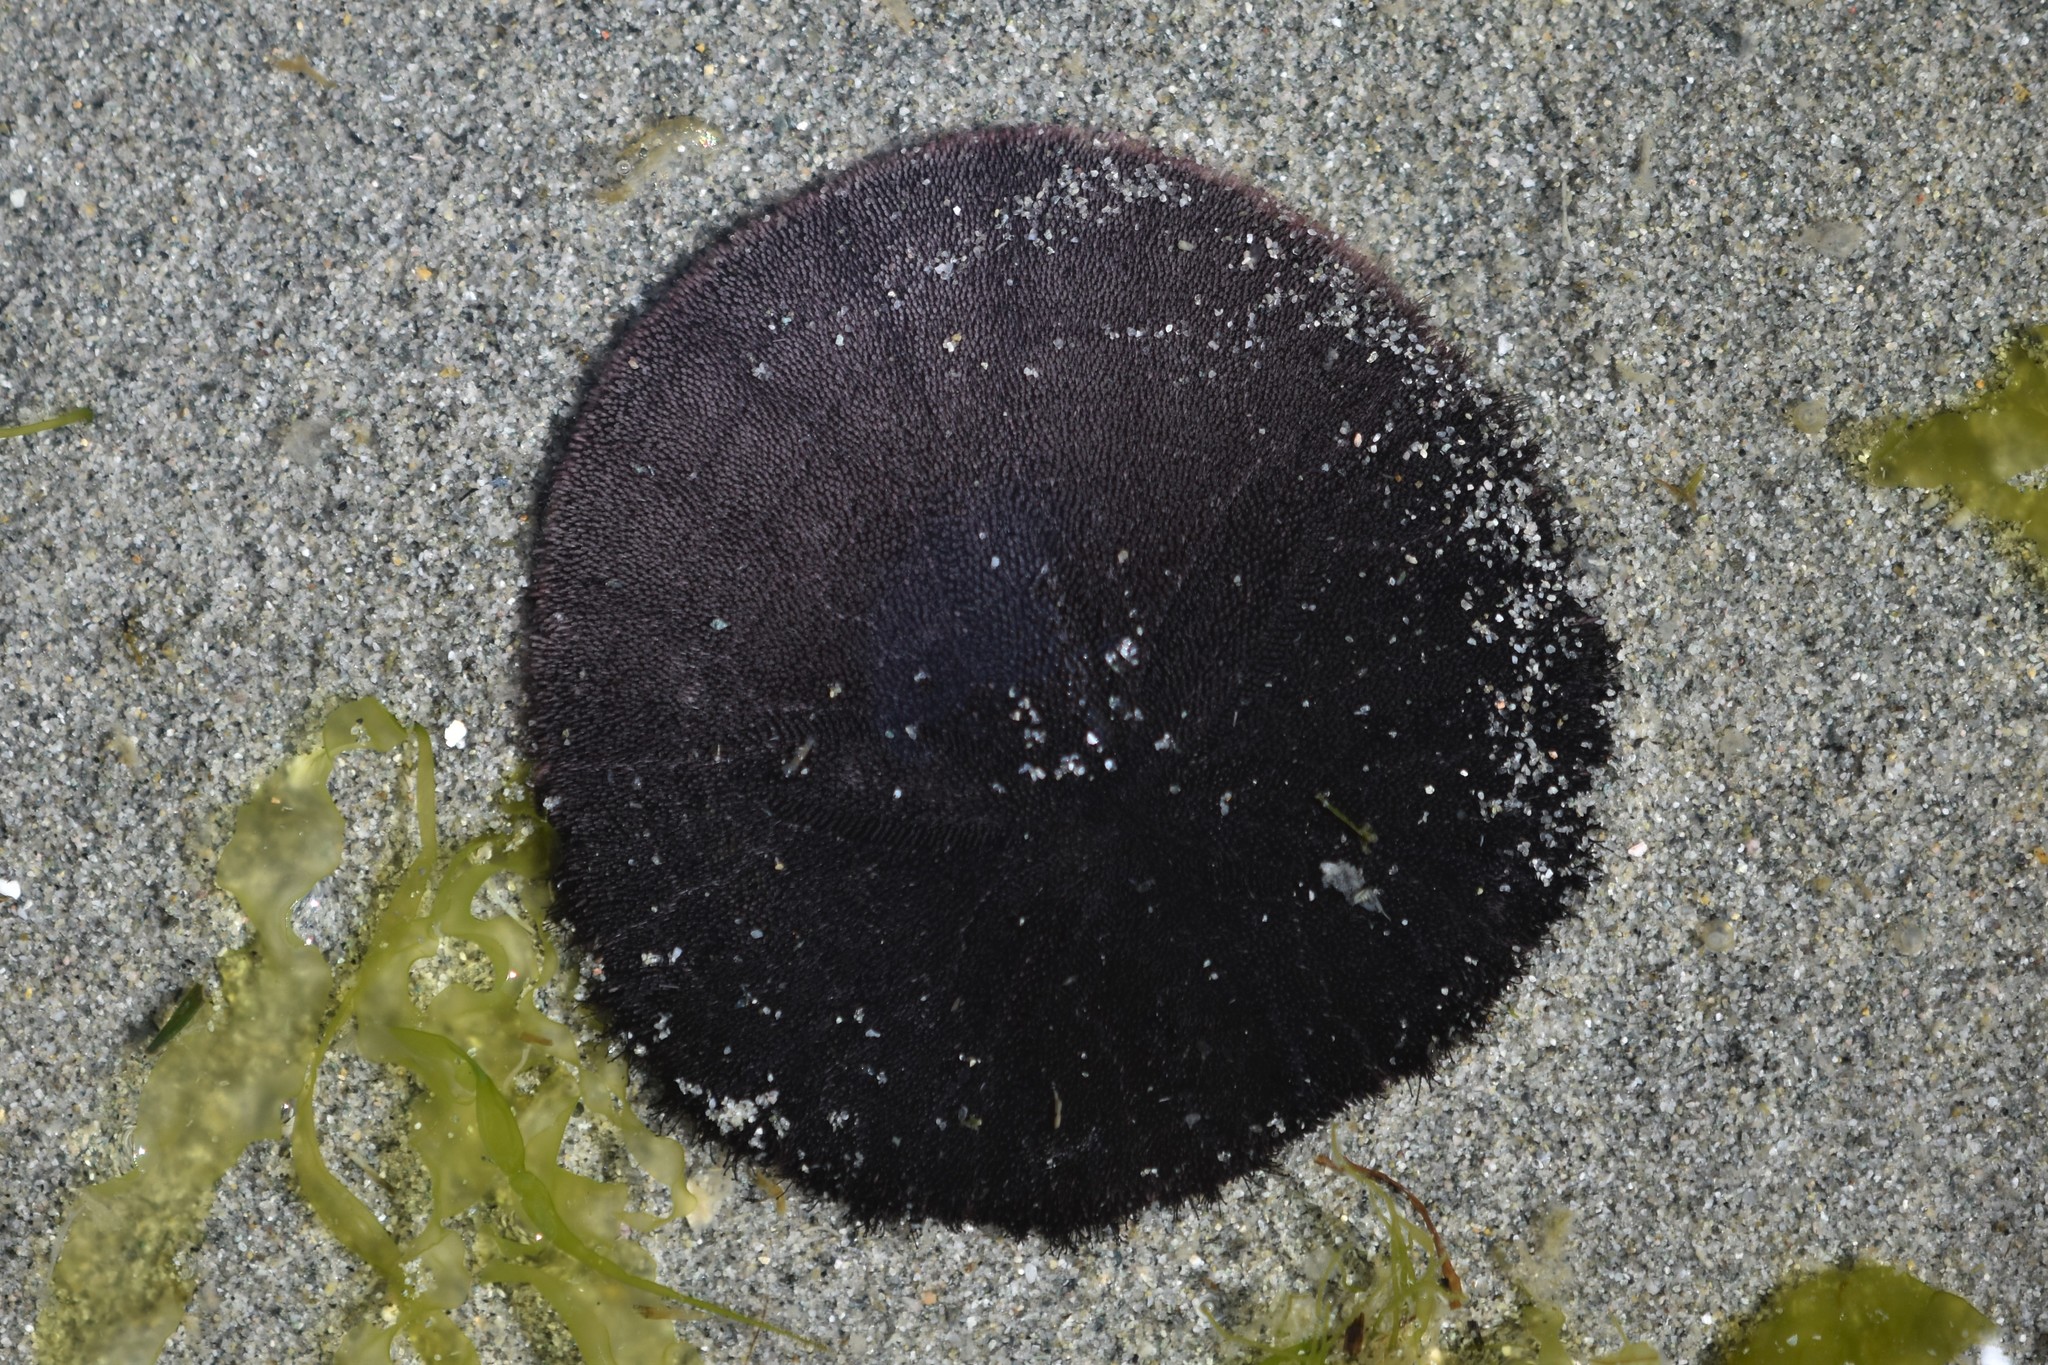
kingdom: Animalia
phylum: Echinodermata
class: Echinoidea
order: Echinolampadacea
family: Dendrasteridae
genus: Dendraster
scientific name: Dendraster excentricus
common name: Eccentric sand dollar sea urchin
